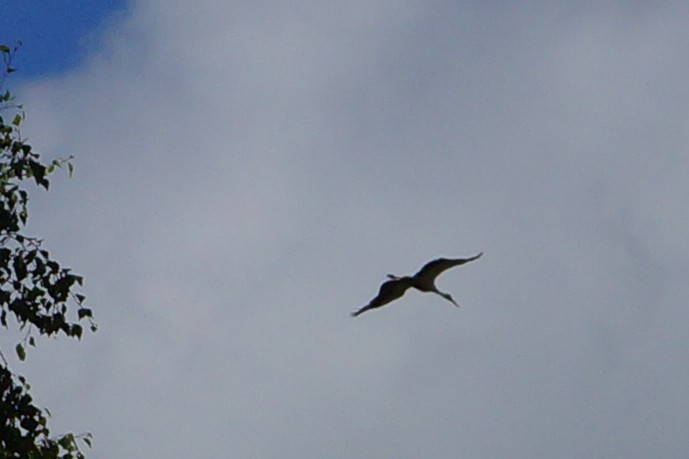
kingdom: Animalia
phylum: Chordata
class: Aves
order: Ciconiiformes
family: Ciconiidae
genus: Ciconia
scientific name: Ciconia ciconia
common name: White stork
